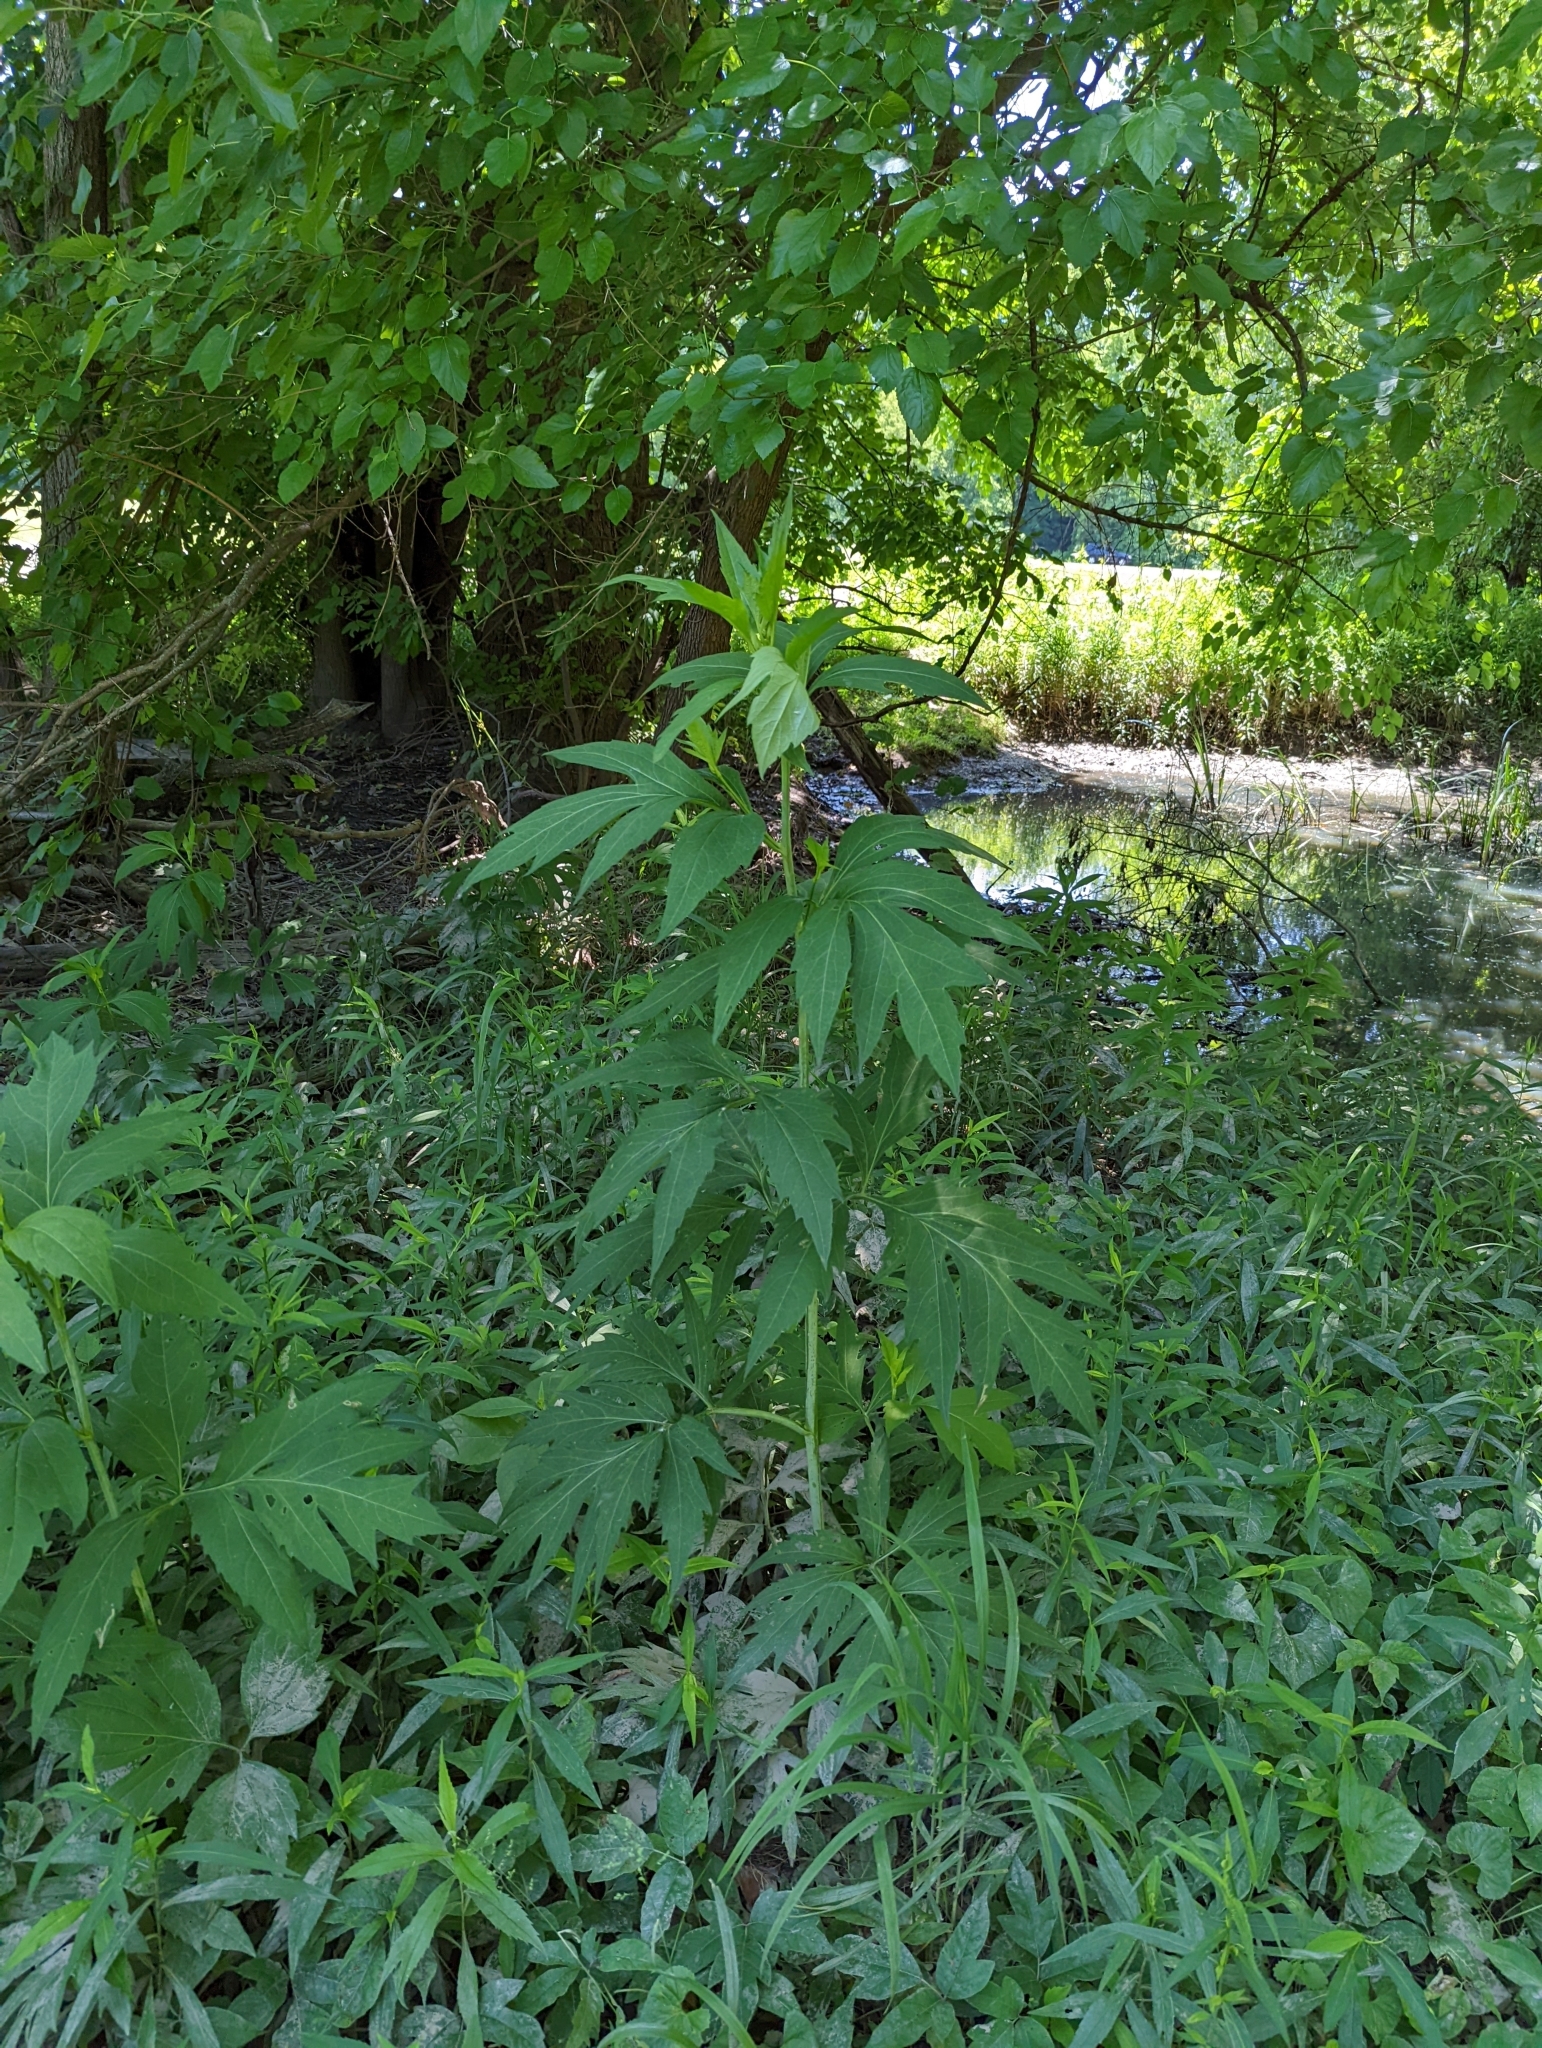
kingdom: Plantae
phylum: Tracheophyta
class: Magnoliopsida
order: Asterales
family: Asteraceae
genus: Rudbeckia
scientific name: Rudbeckia laciniata
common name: Coneflower
